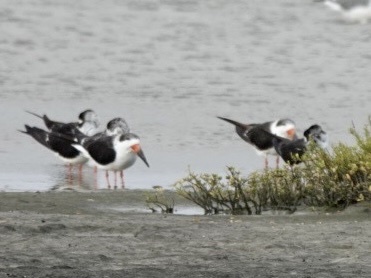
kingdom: Animalia
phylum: Chordata
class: Aves
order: Charadriiformes
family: Laridae
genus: Rynchops
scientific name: Rynchops niger
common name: Black skimmer
